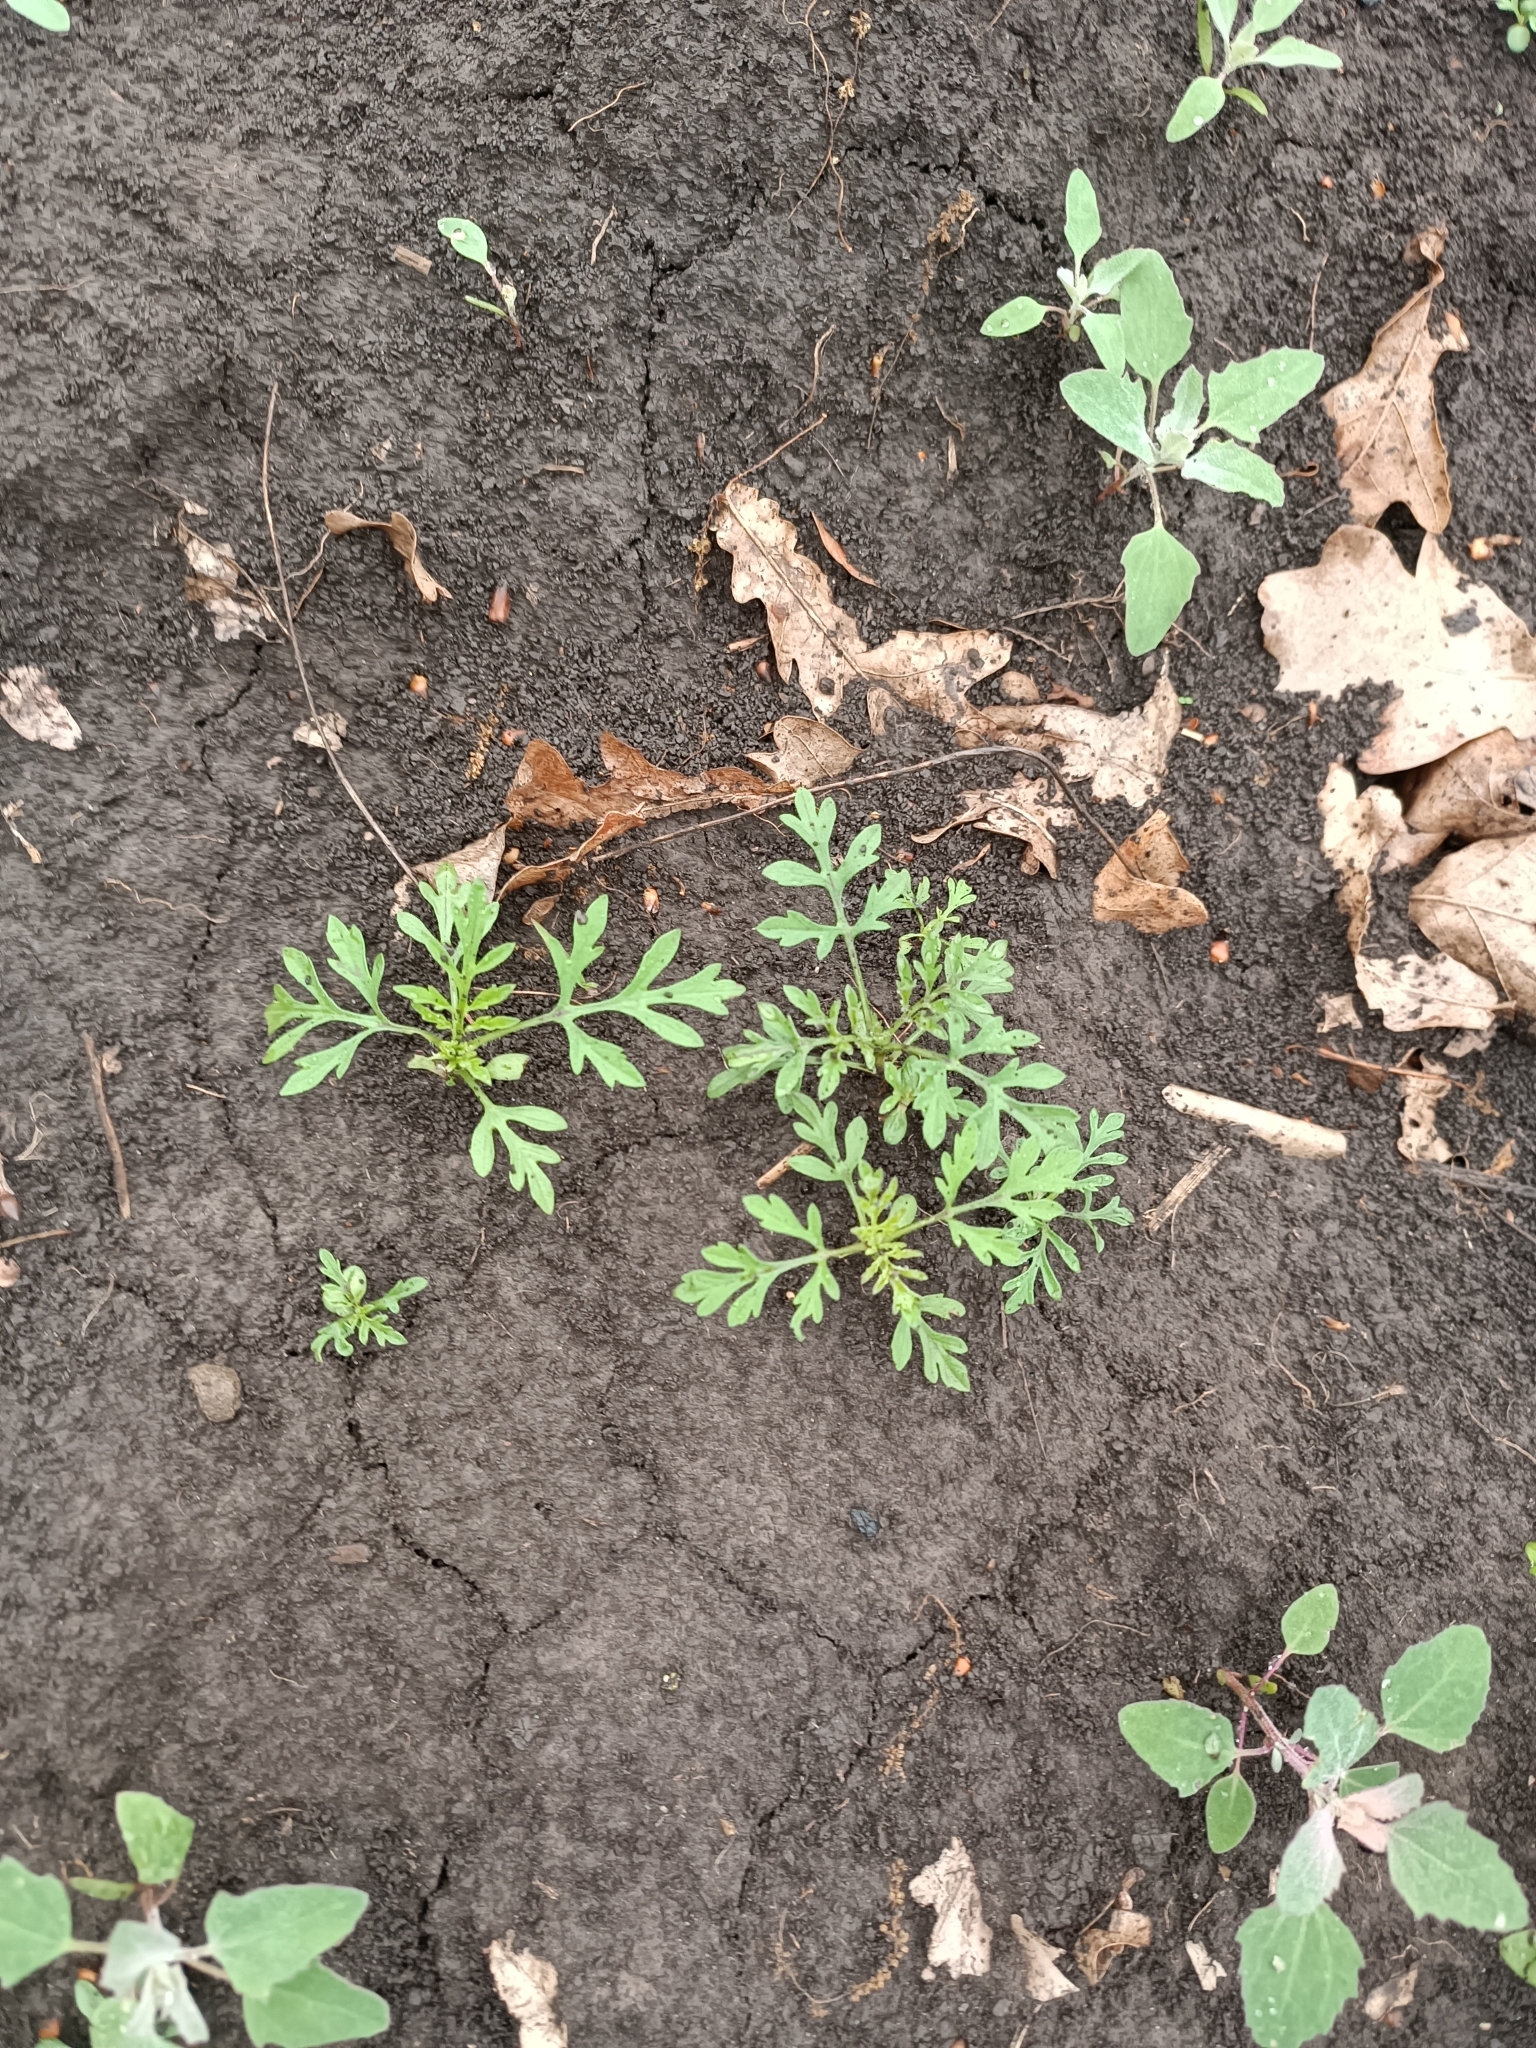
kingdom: Plantae
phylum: Tracheophyta
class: Magnoliopsida
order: Asterales
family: Asteraceae
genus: Ambrosia
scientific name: Ambrosia artemisiifolia
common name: Annual ragweed
